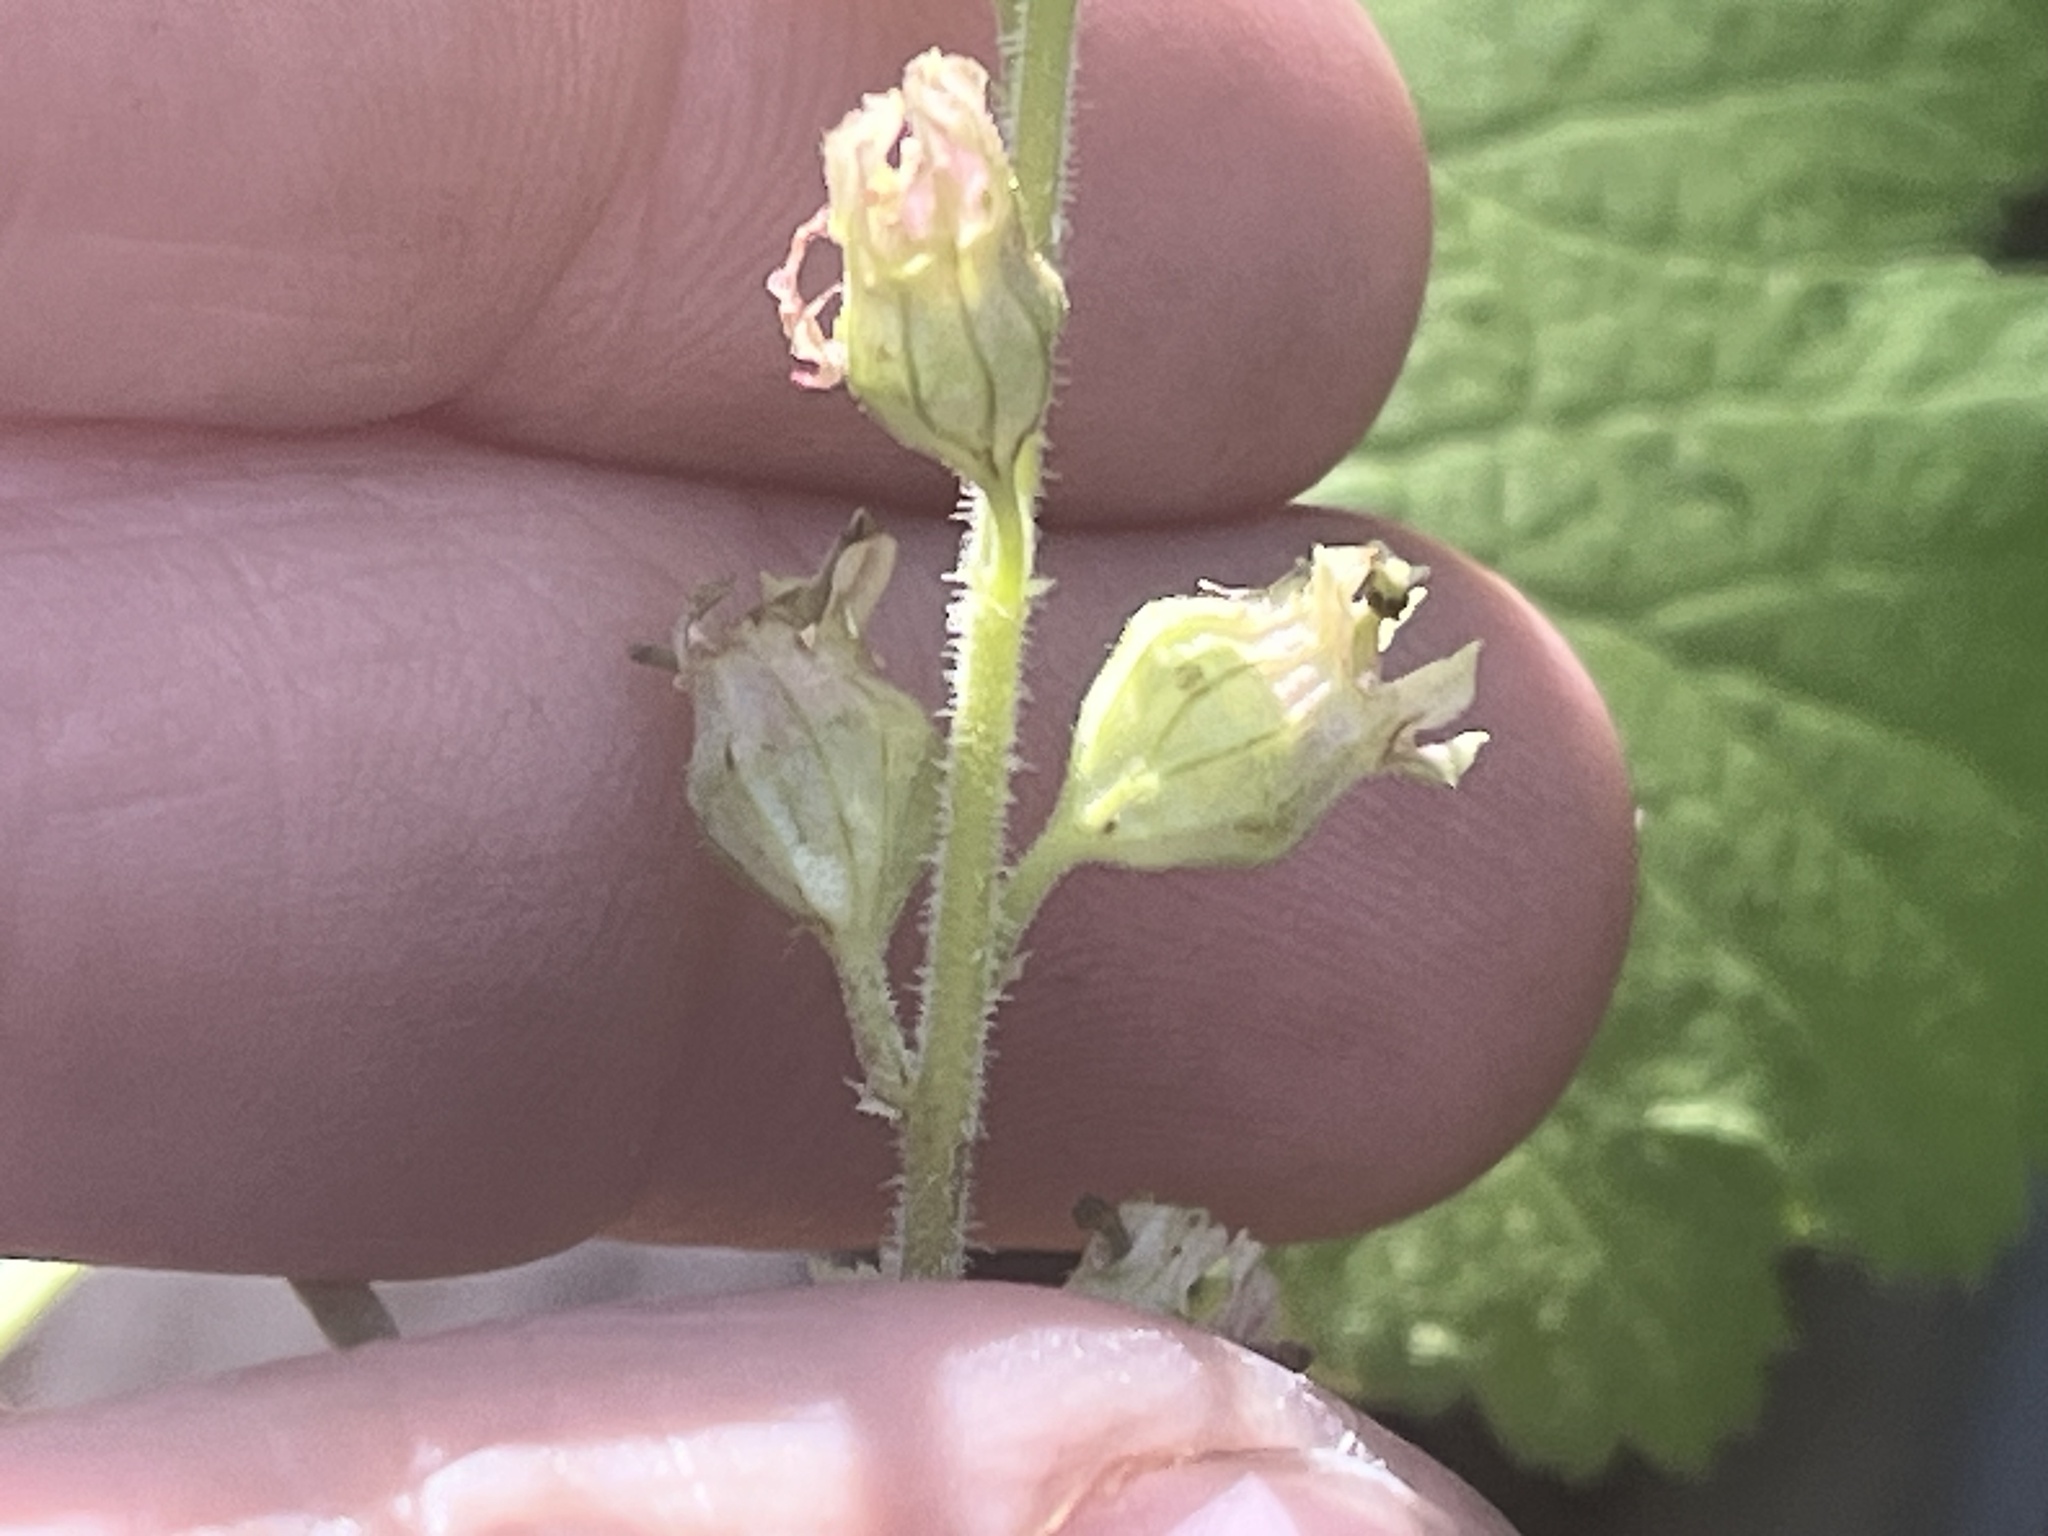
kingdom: Plantae
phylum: Tracheophyta
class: Magnoliopsida
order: Saxifragales
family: Saxifragaceae
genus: Tellima
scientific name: Tellima grandiflora
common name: Fringecups
